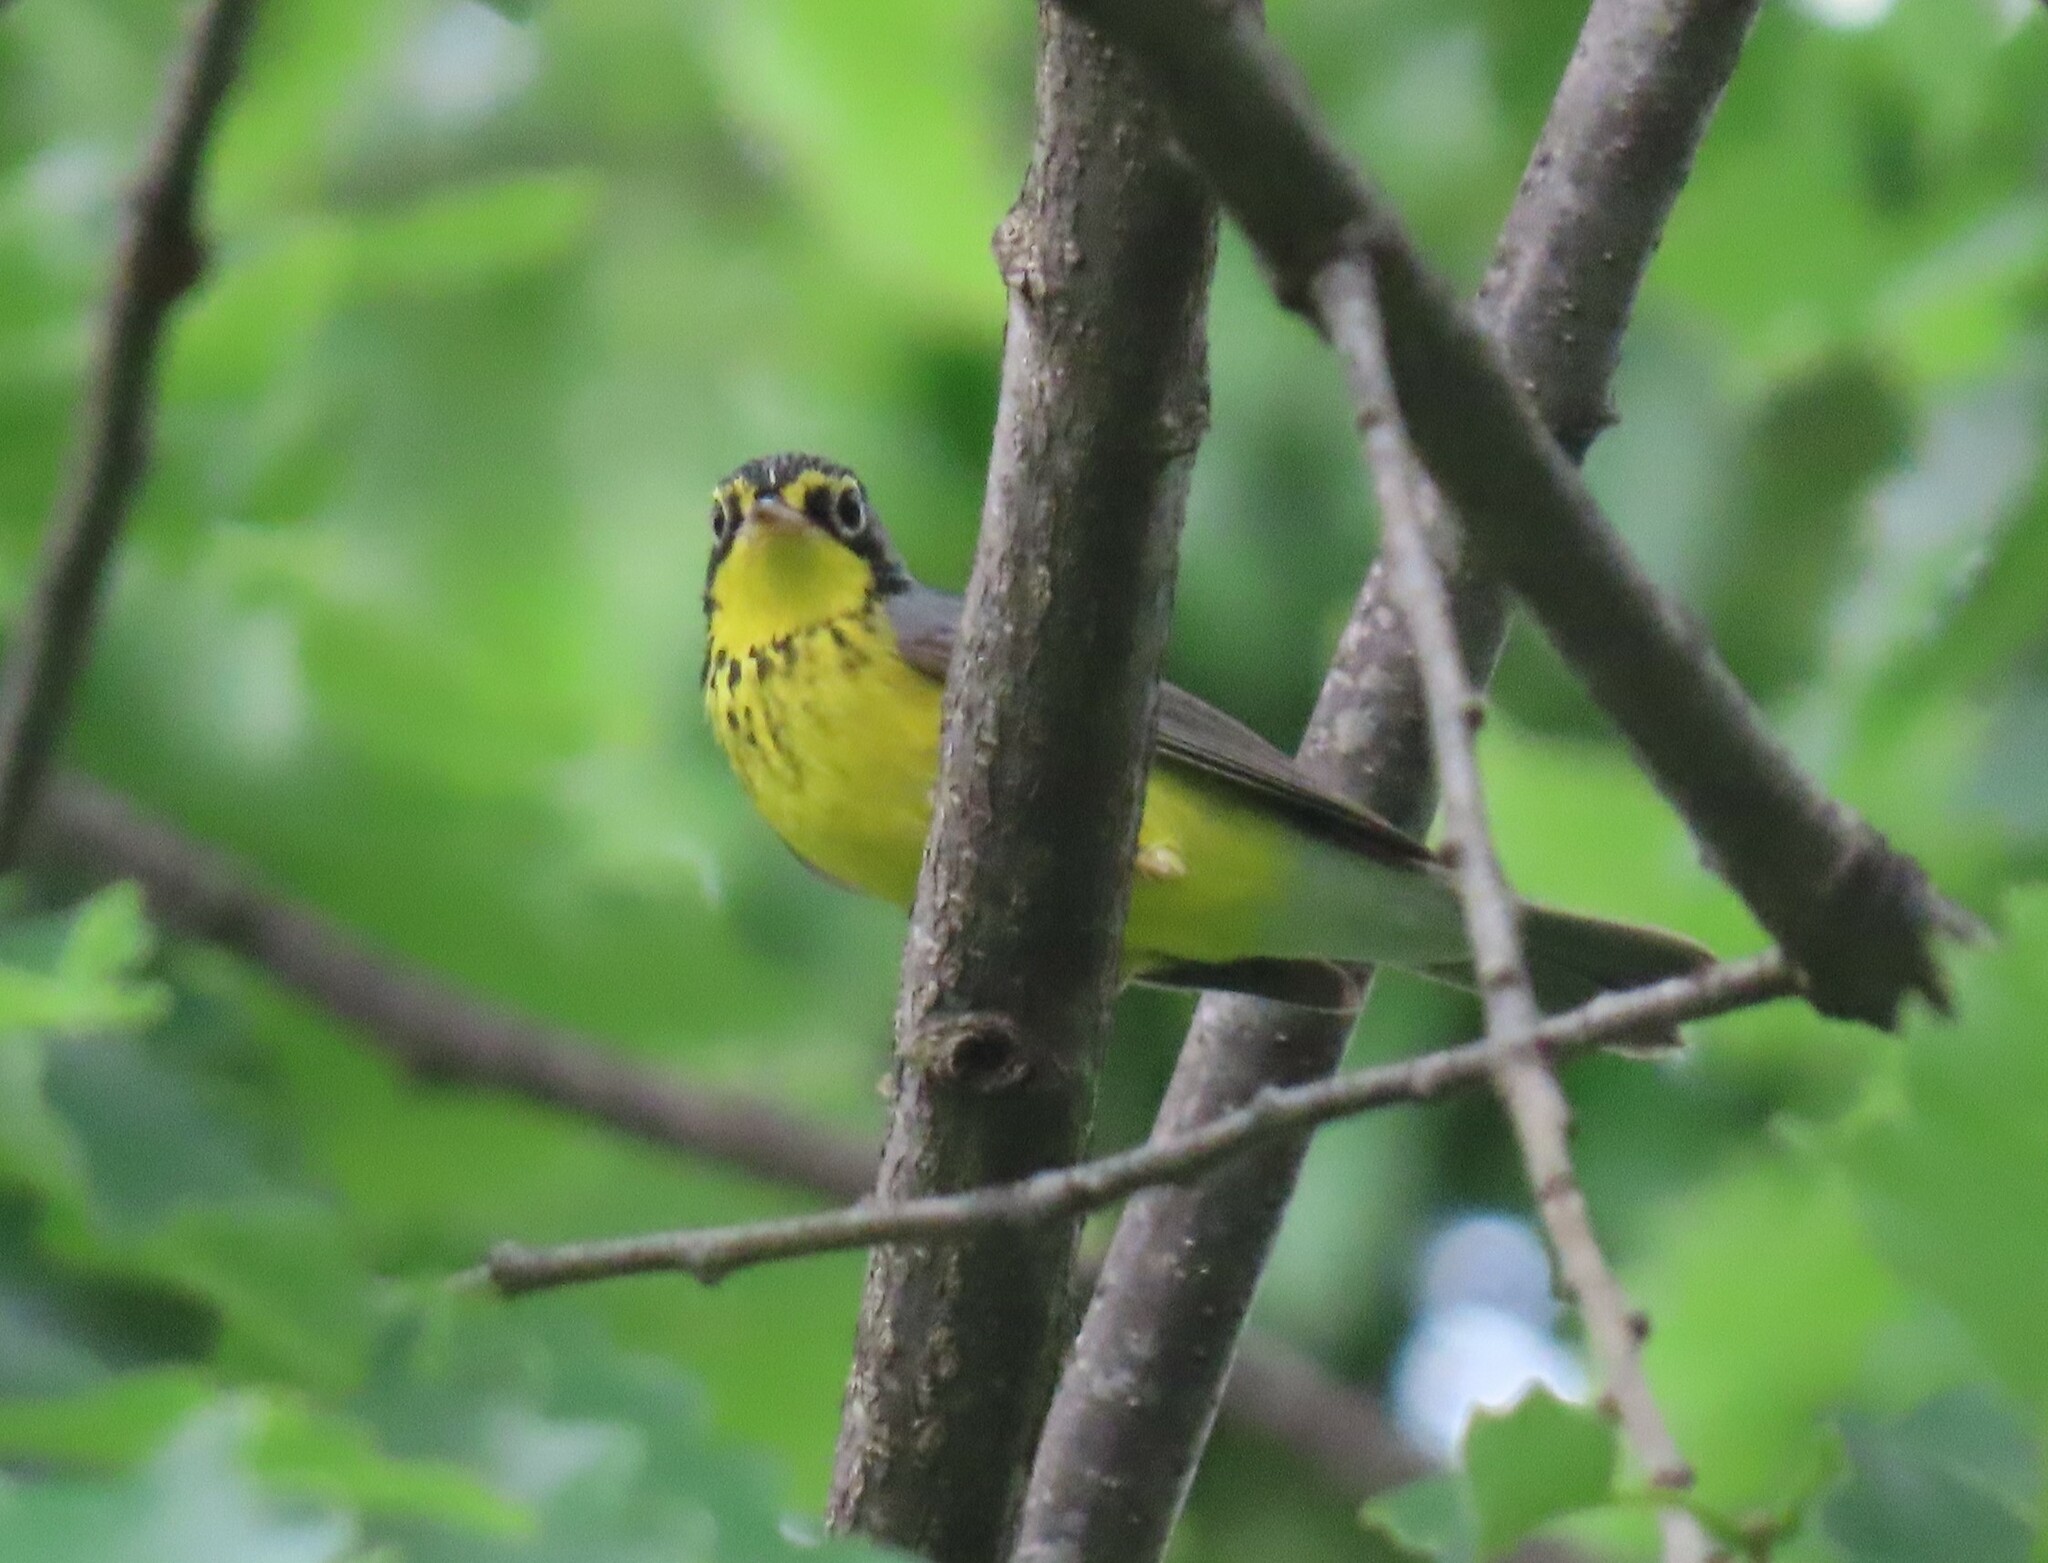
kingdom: Animalia
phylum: Chordata
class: Aves
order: Passeriformes
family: Parulidae
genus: Cardellina
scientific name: Cardellina canadensis
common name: Canada warbler
